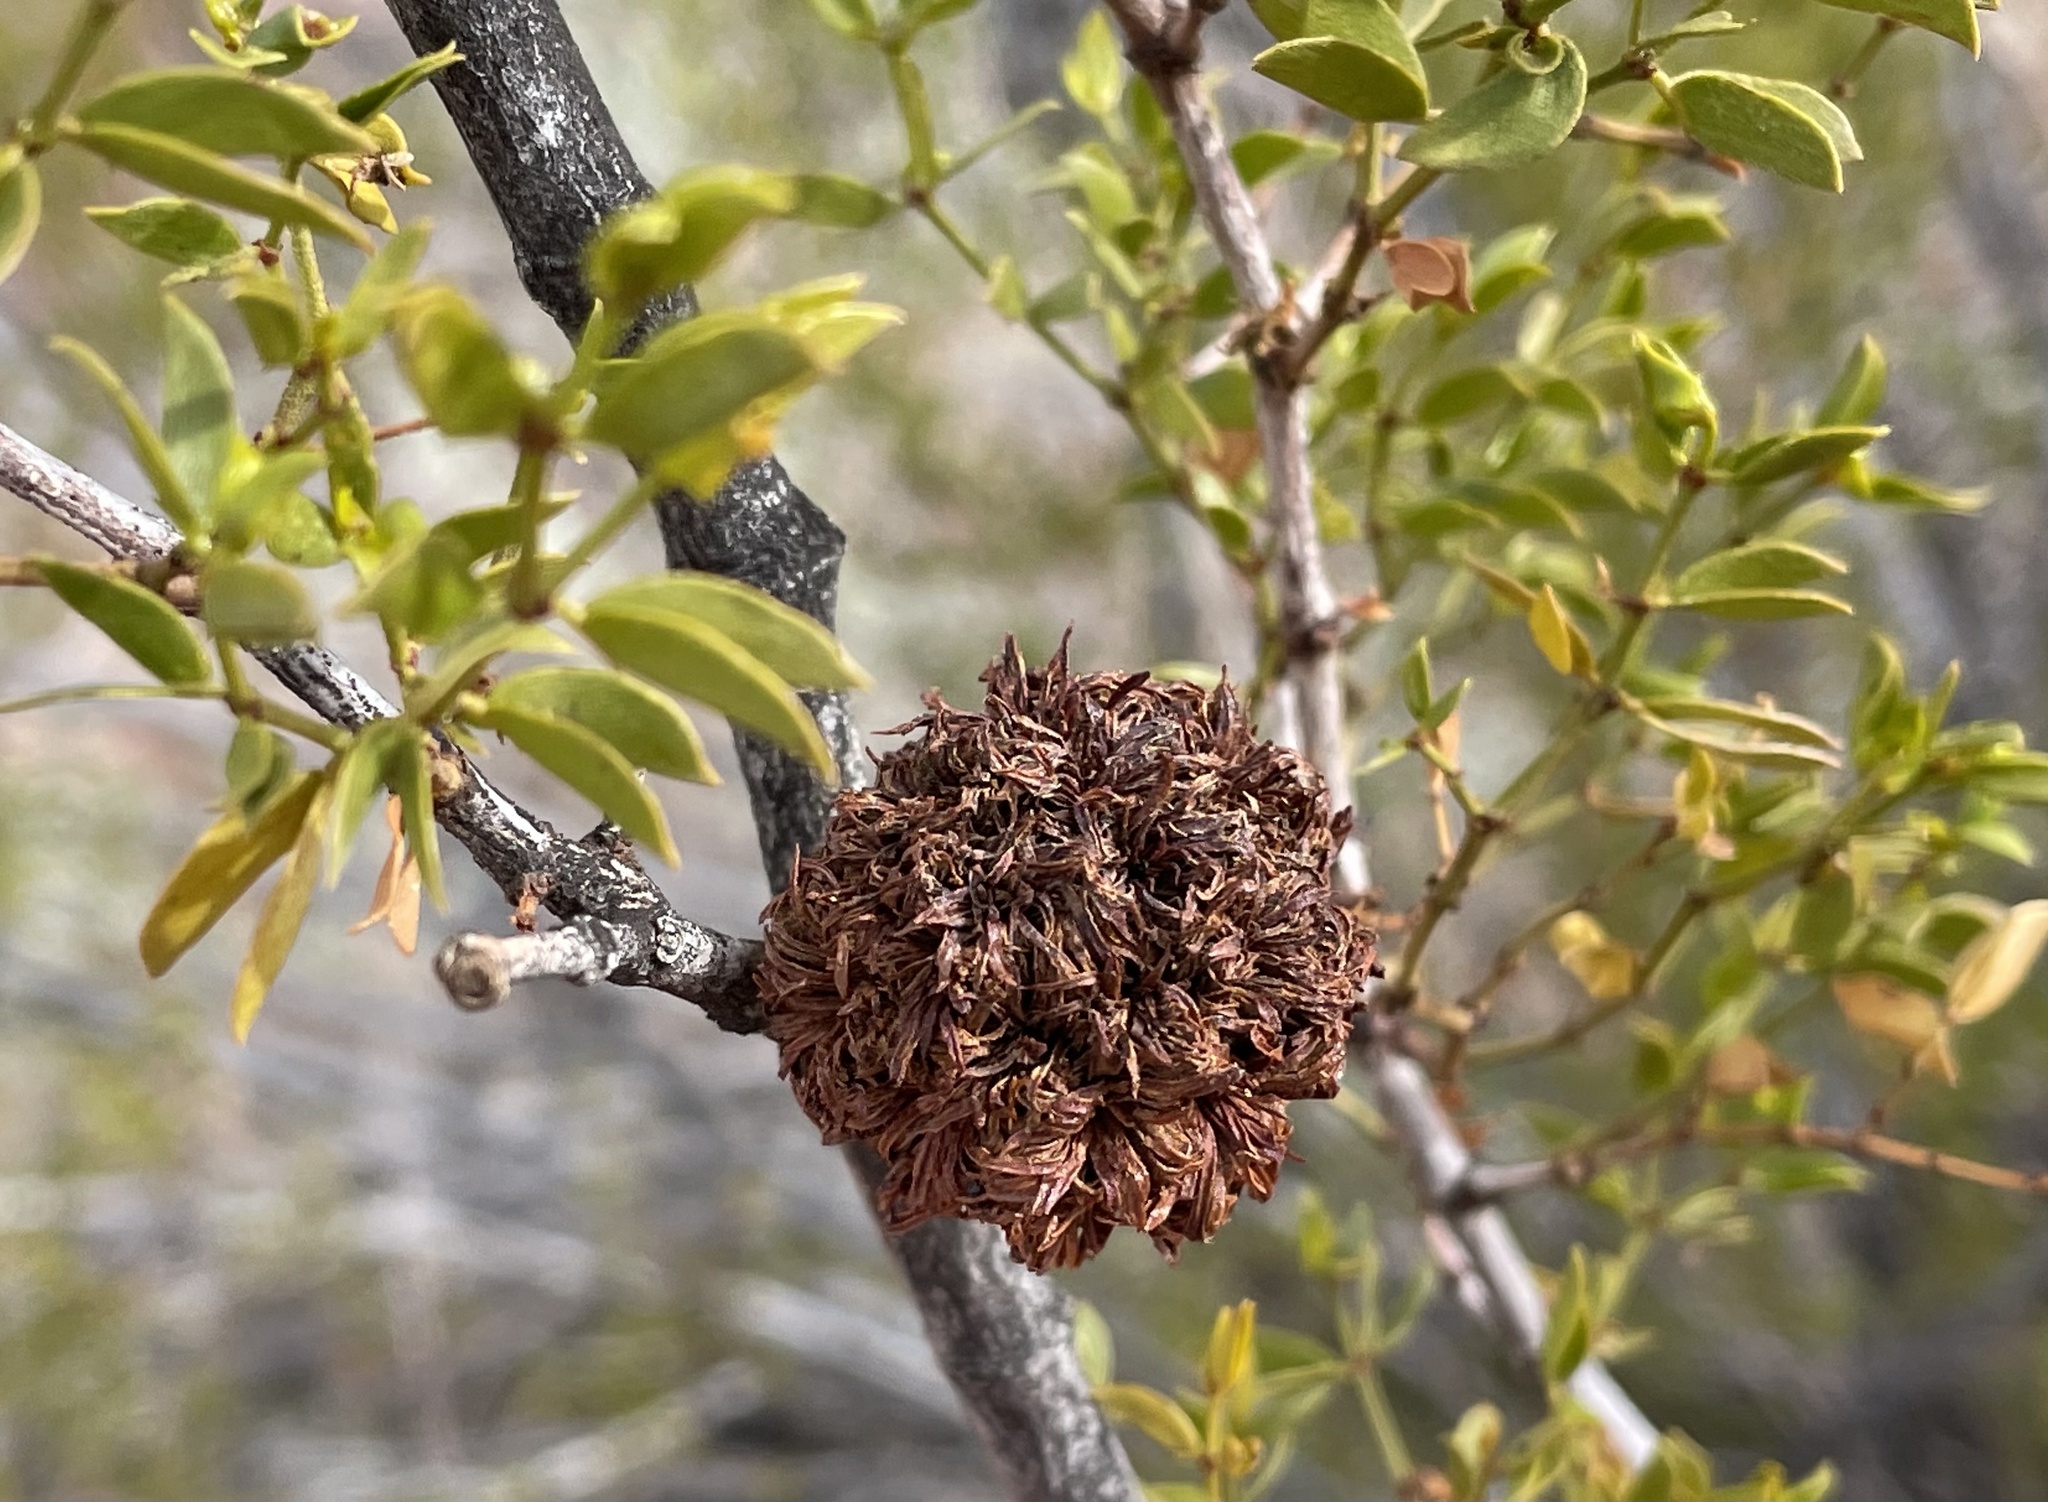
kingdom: Animalia
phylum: Arthropoda
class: Insecta
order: Diptera
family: Cecidomyiidae
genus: Asphondylia
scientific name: Asphondylia auripila
